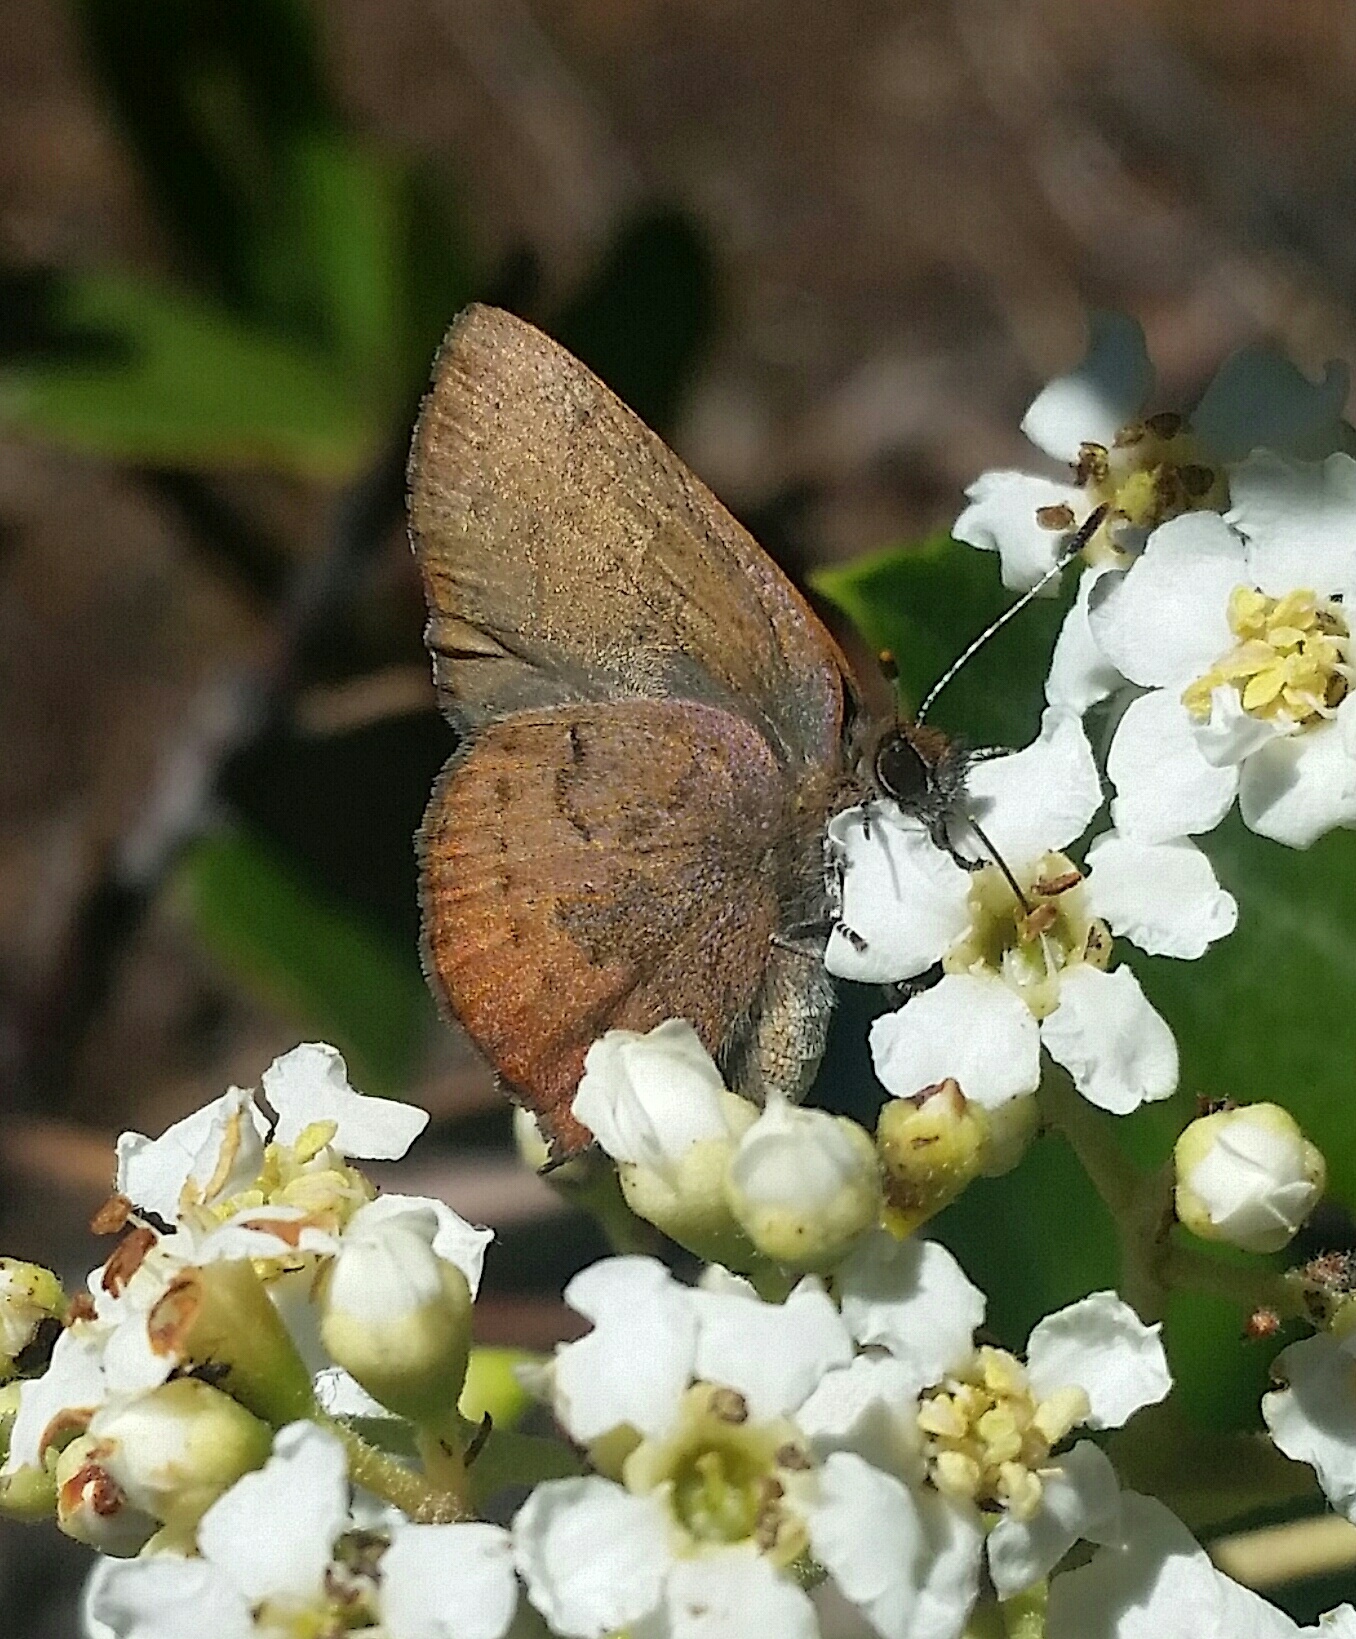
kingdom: Animalia
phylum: Arthropoda
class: Insecta
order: Lepidoptera
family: Lycaenidae
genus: Incisalia
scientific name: Incisalia irioides
